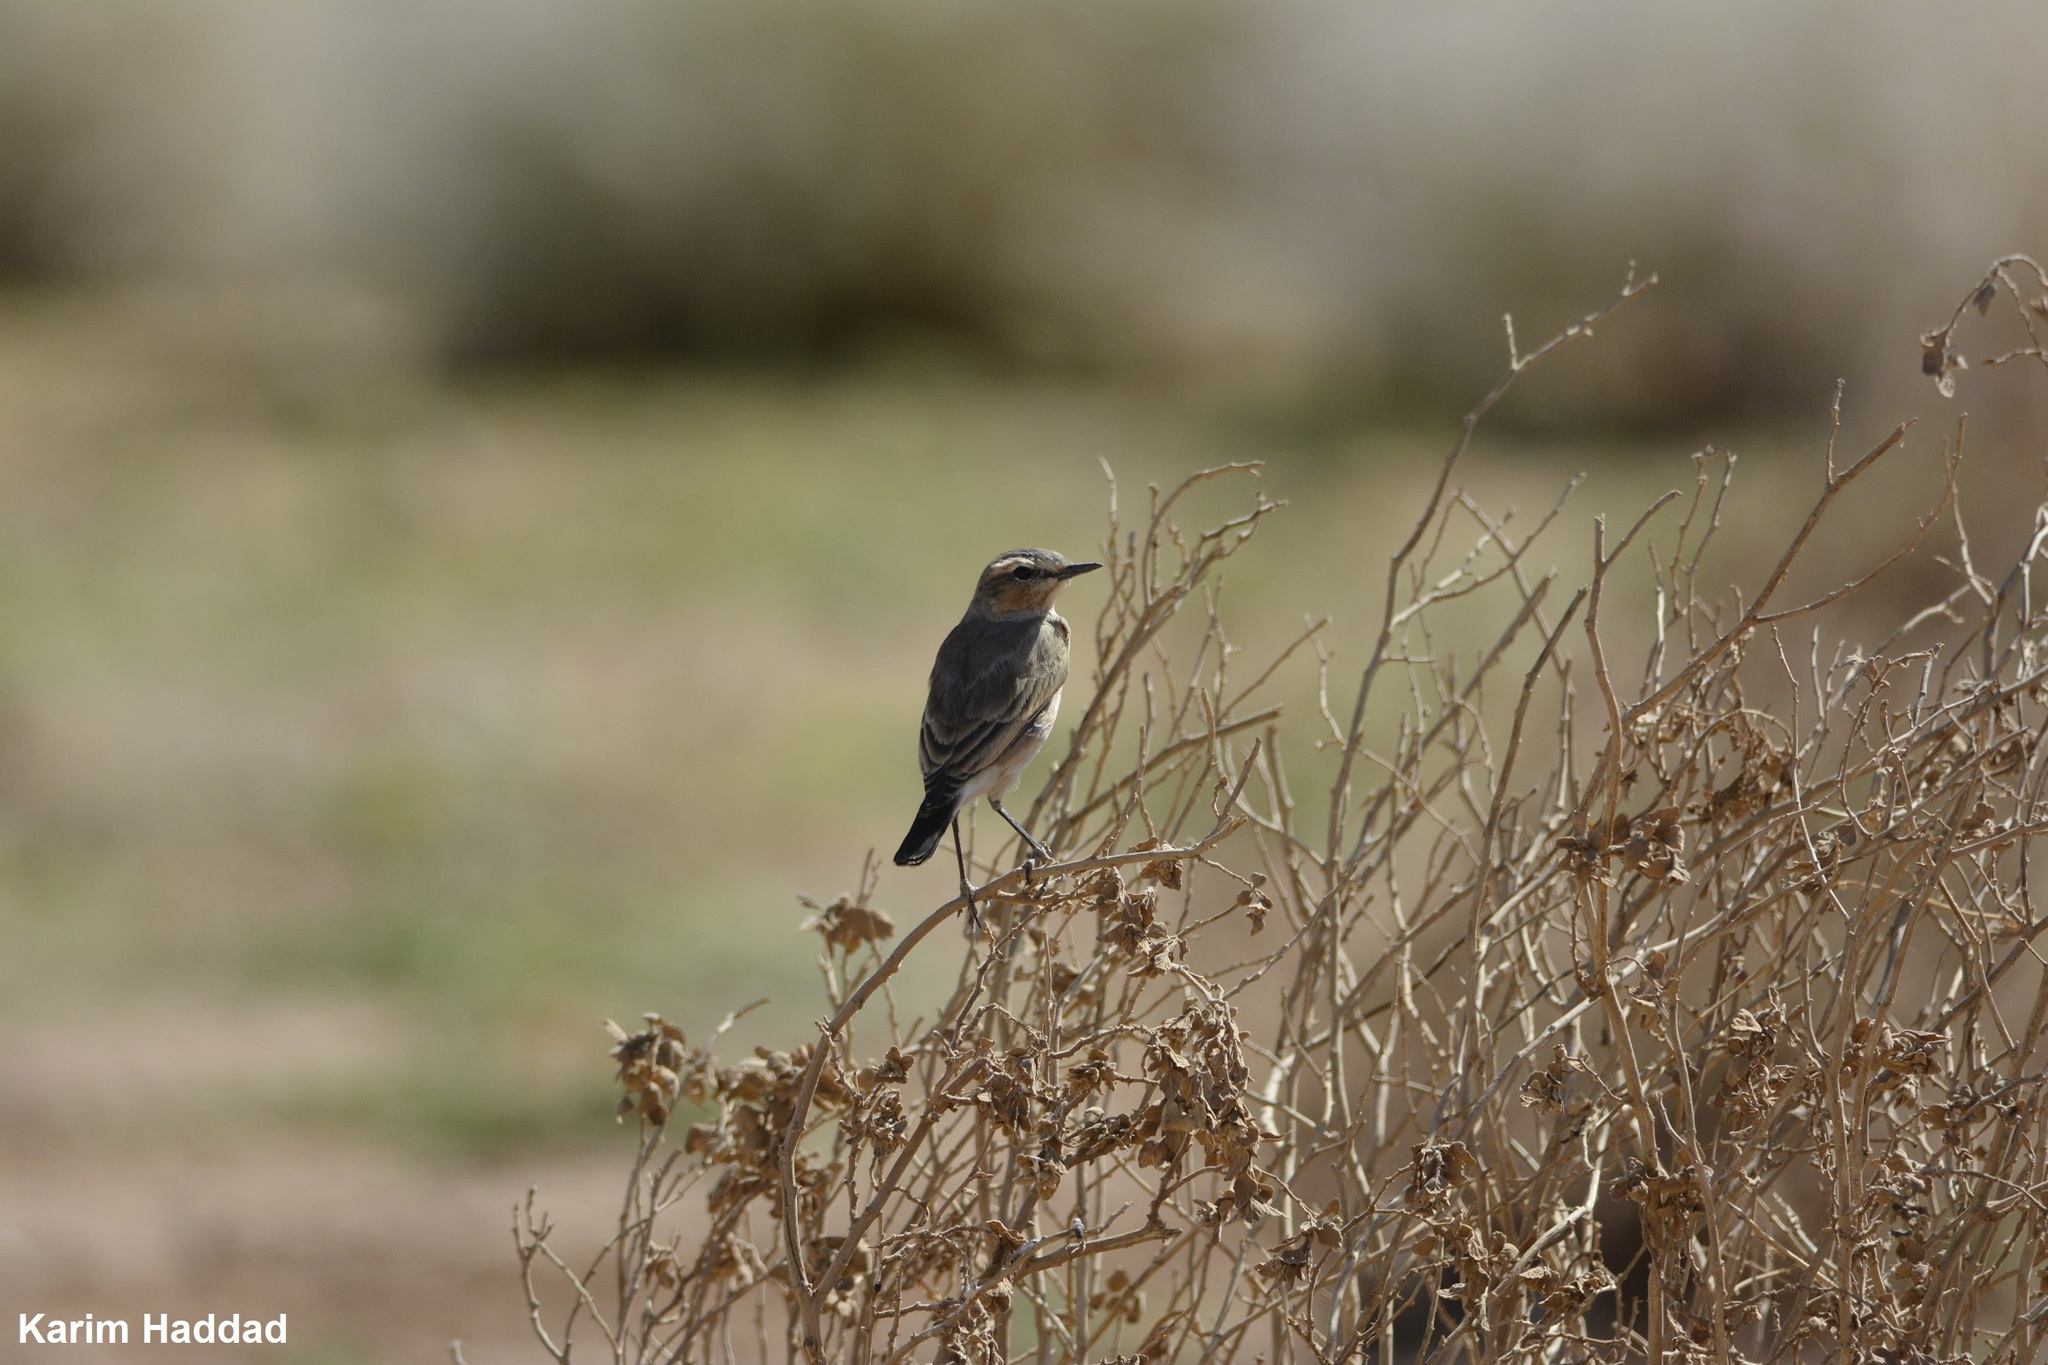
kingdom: Animalia
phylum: Chordata
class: Aves
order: Passeriformes
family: Muscicapidae
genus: Oenanthe
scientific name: Oenanthe isabellina
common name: Isabelline wheatear
